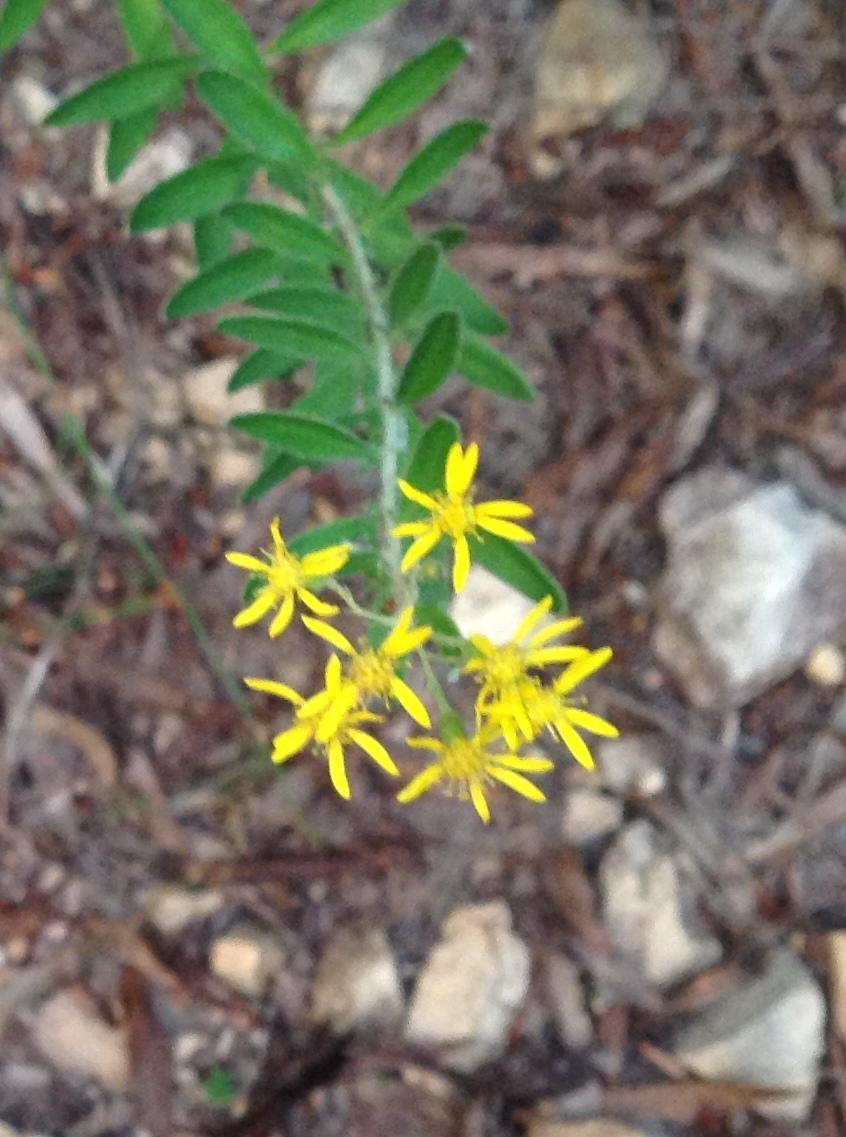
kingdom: Plantae
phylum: Tracheophyta
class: Magnoliopsida
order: Asterales
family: Asteraceae
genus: Senecio
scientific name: Senecio crenatus
